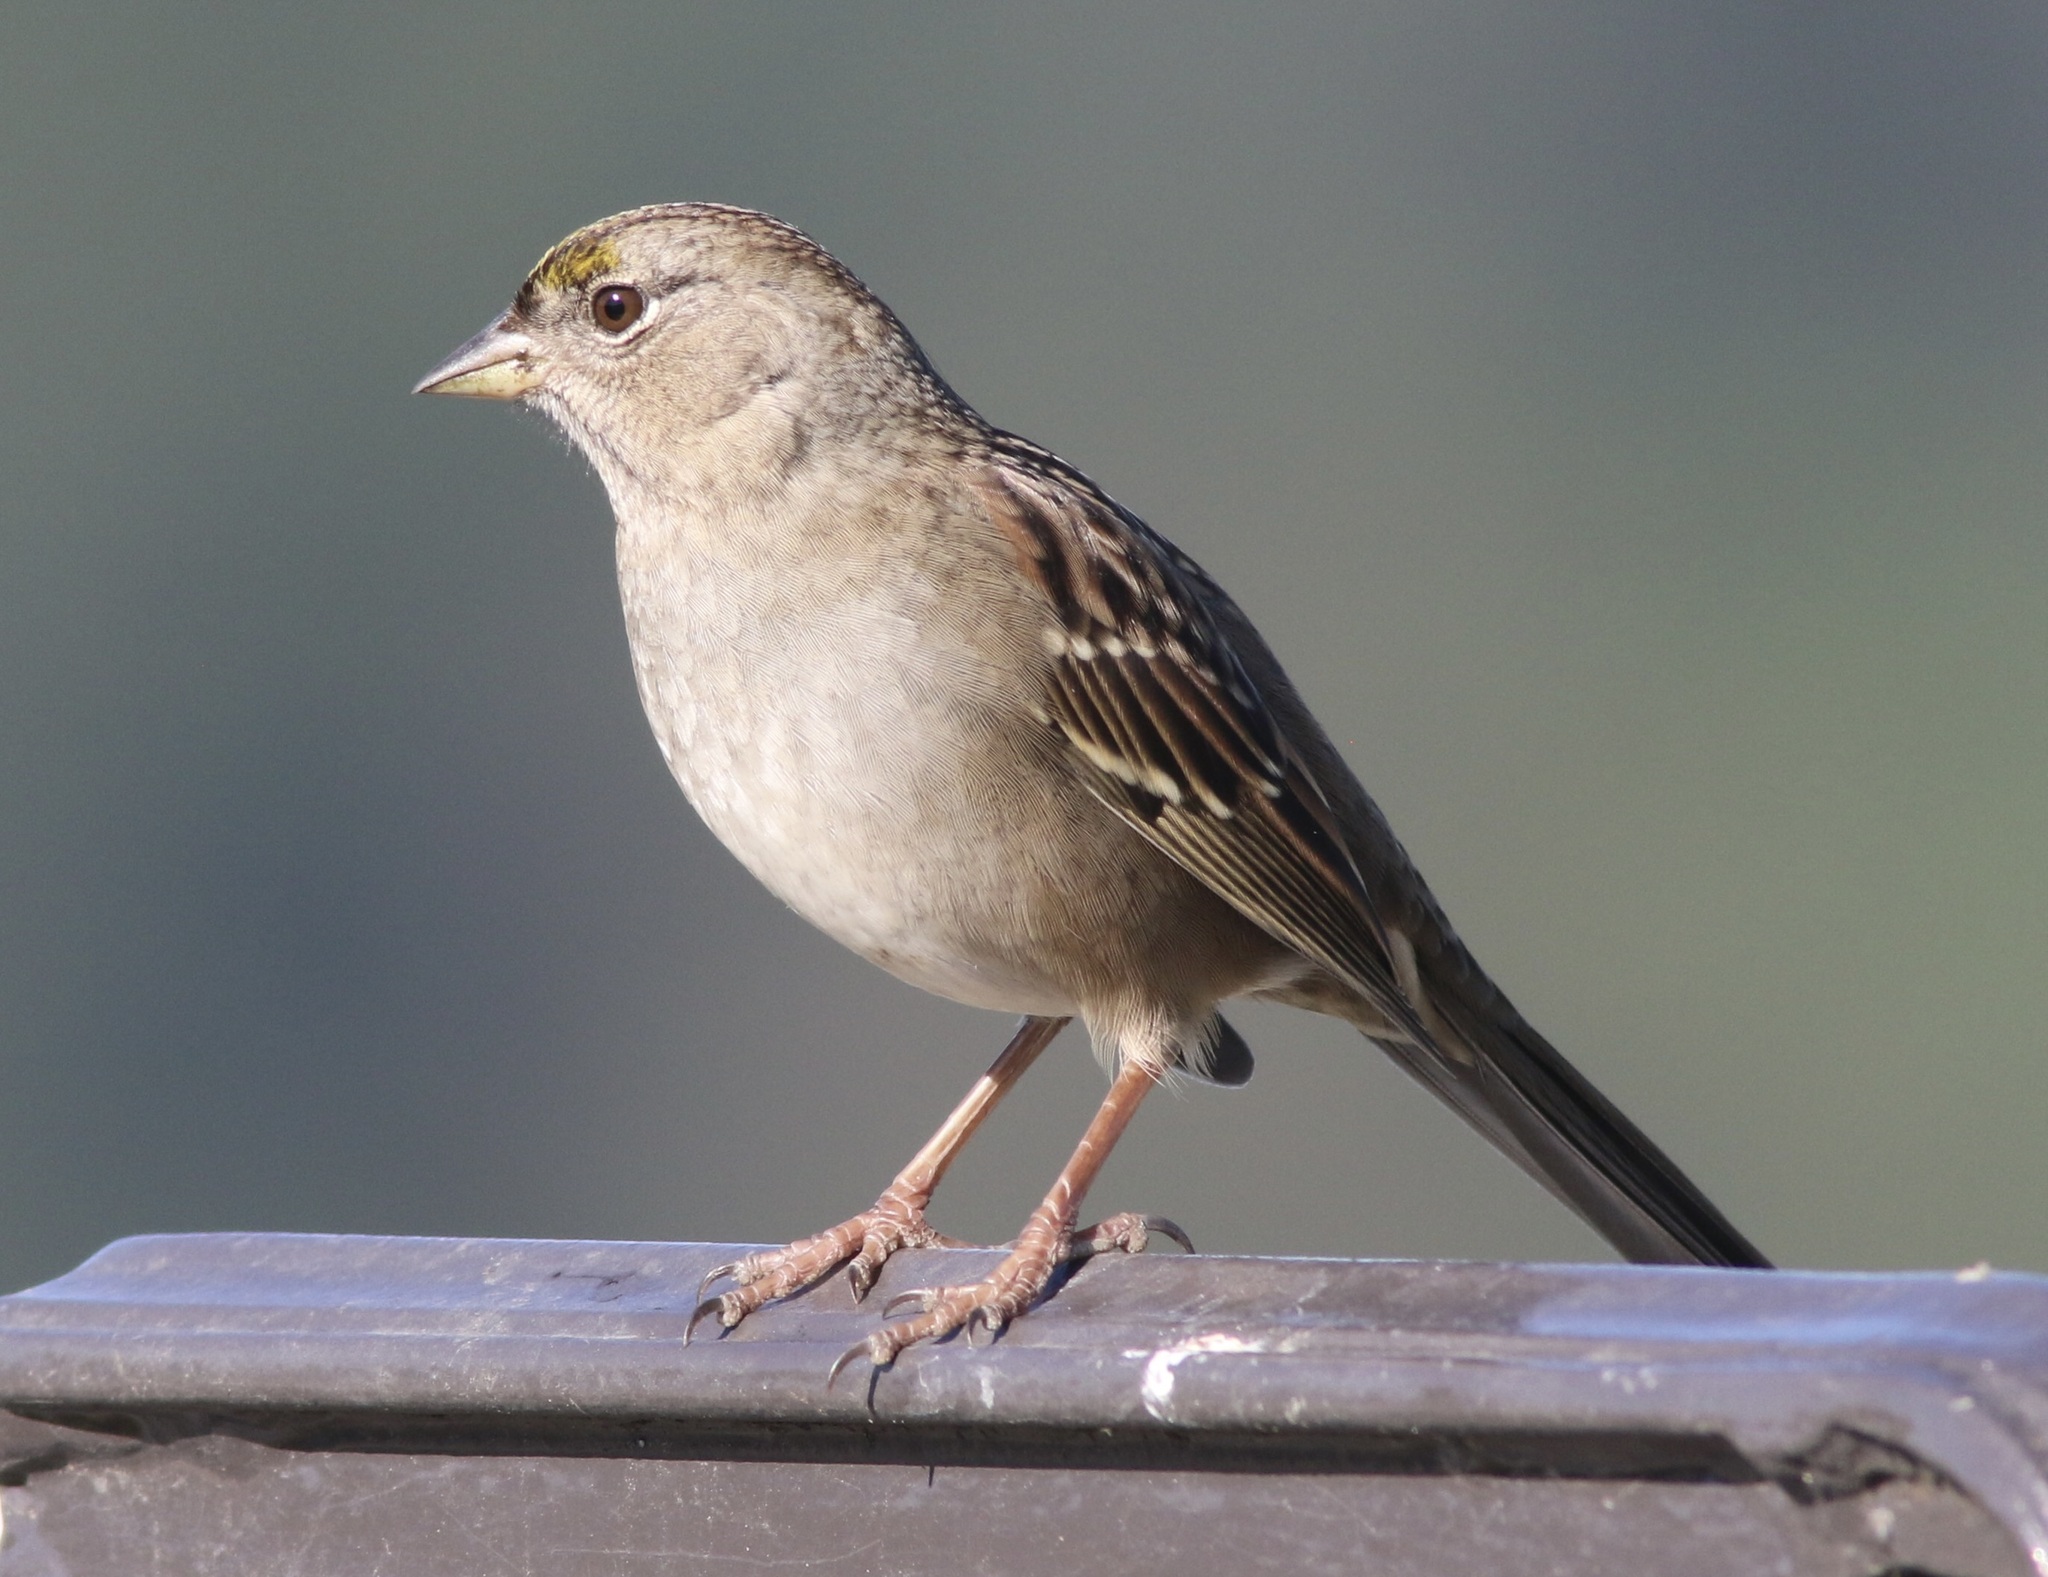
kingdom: Animalia
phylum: Chordata
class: Aves
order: Passeriformes
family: Passerellidae
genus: Zonotrichia
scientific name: Zonotrichia atricapilla
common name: Golden-crowned sparrow
